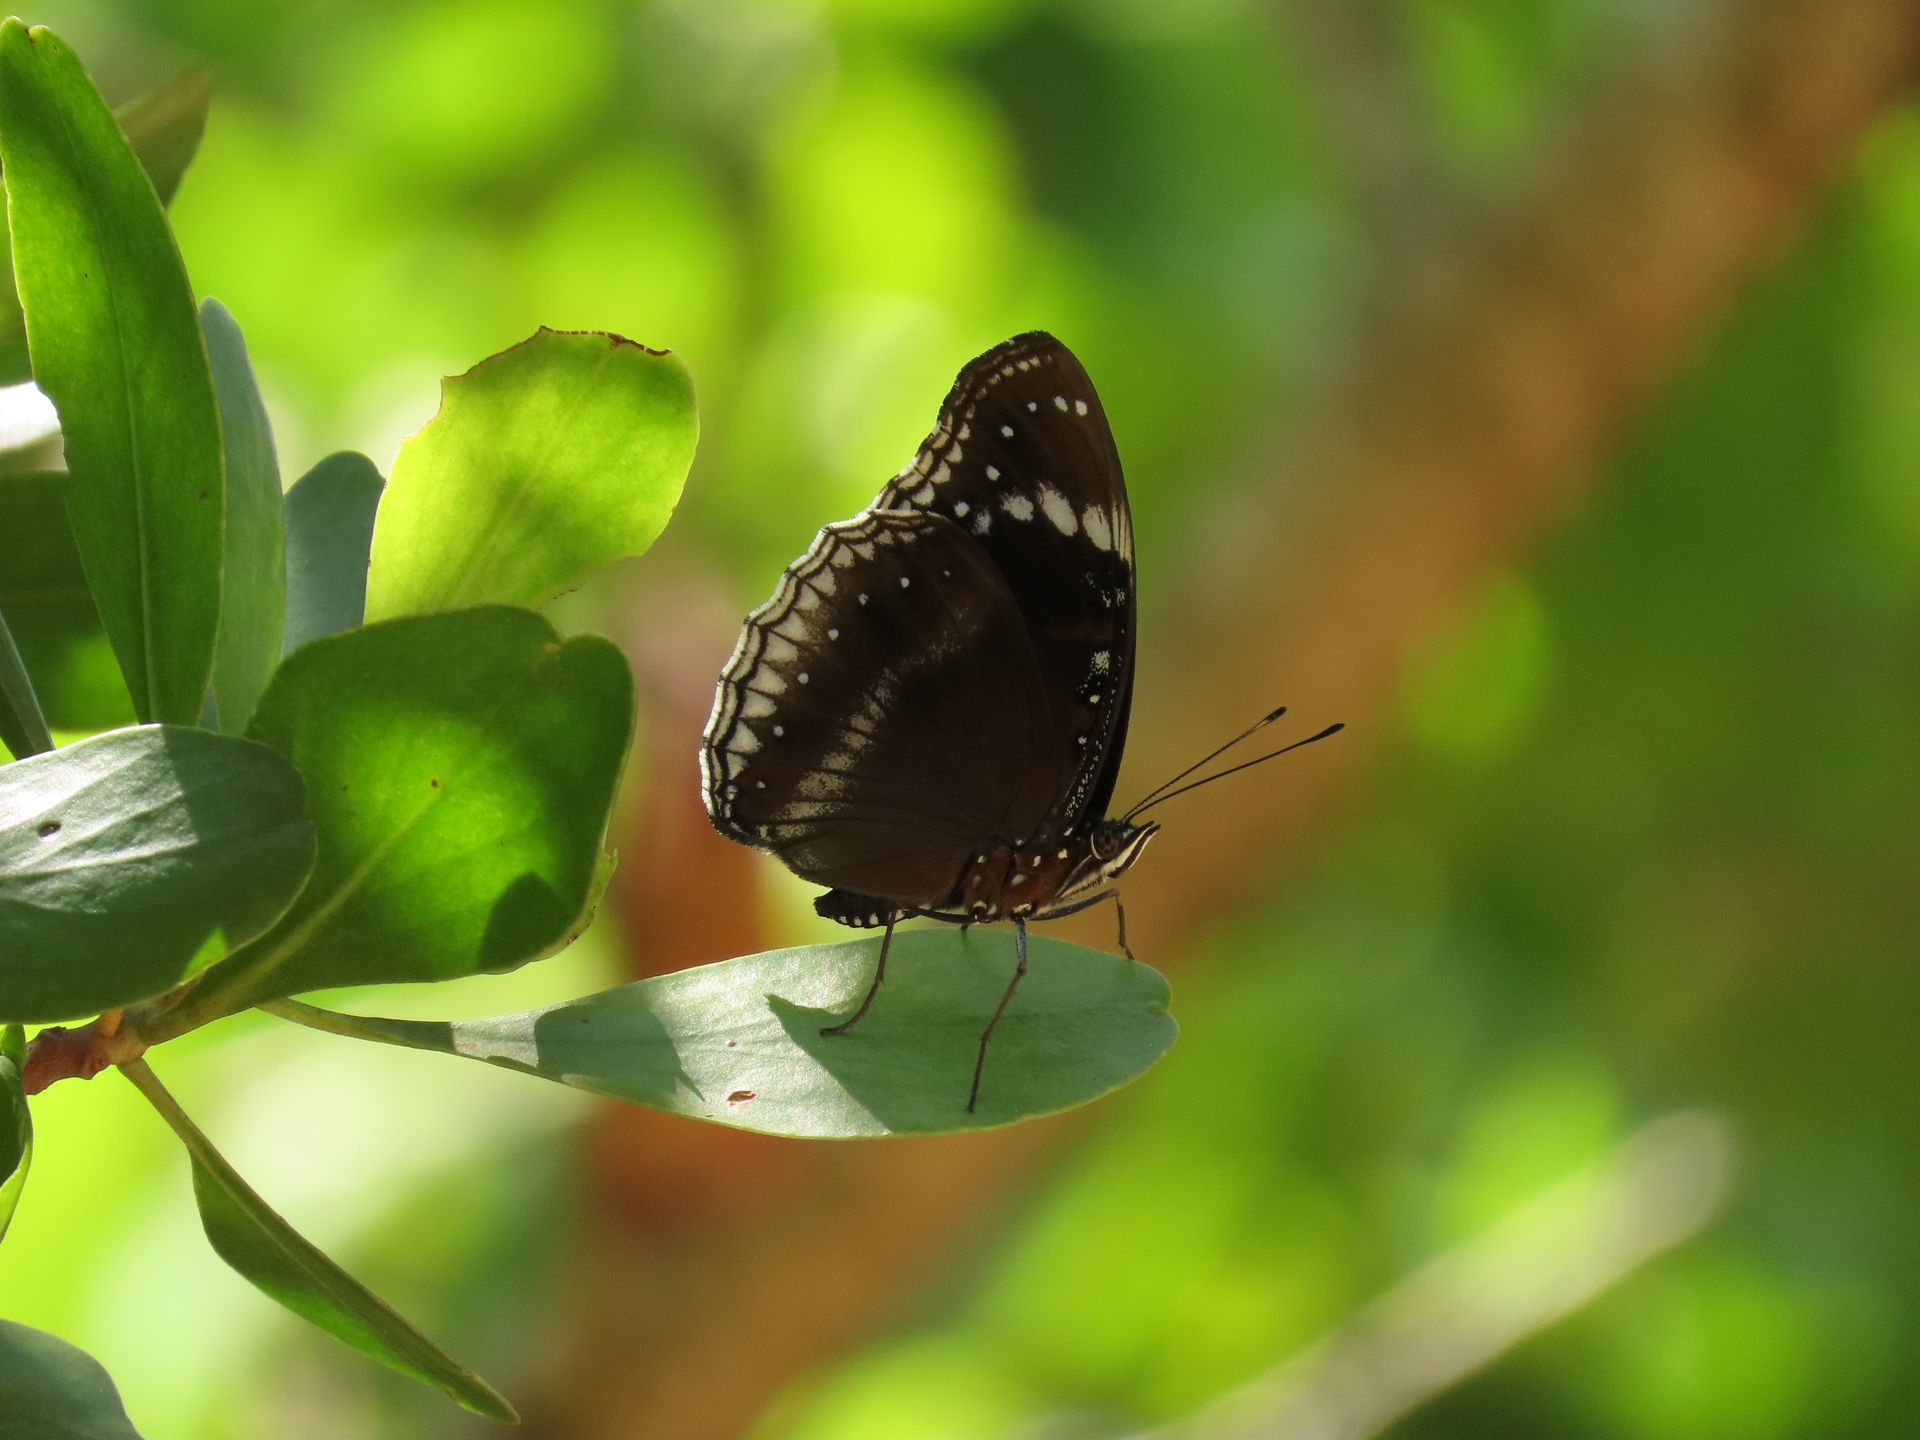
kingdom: Animalia
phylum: Arthropoda
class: Insecta
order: Lepidoptera
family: Nymphalidae
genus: Hypolimnas
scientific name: Hypolimnas alimena
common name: Blue-banded eggfly
